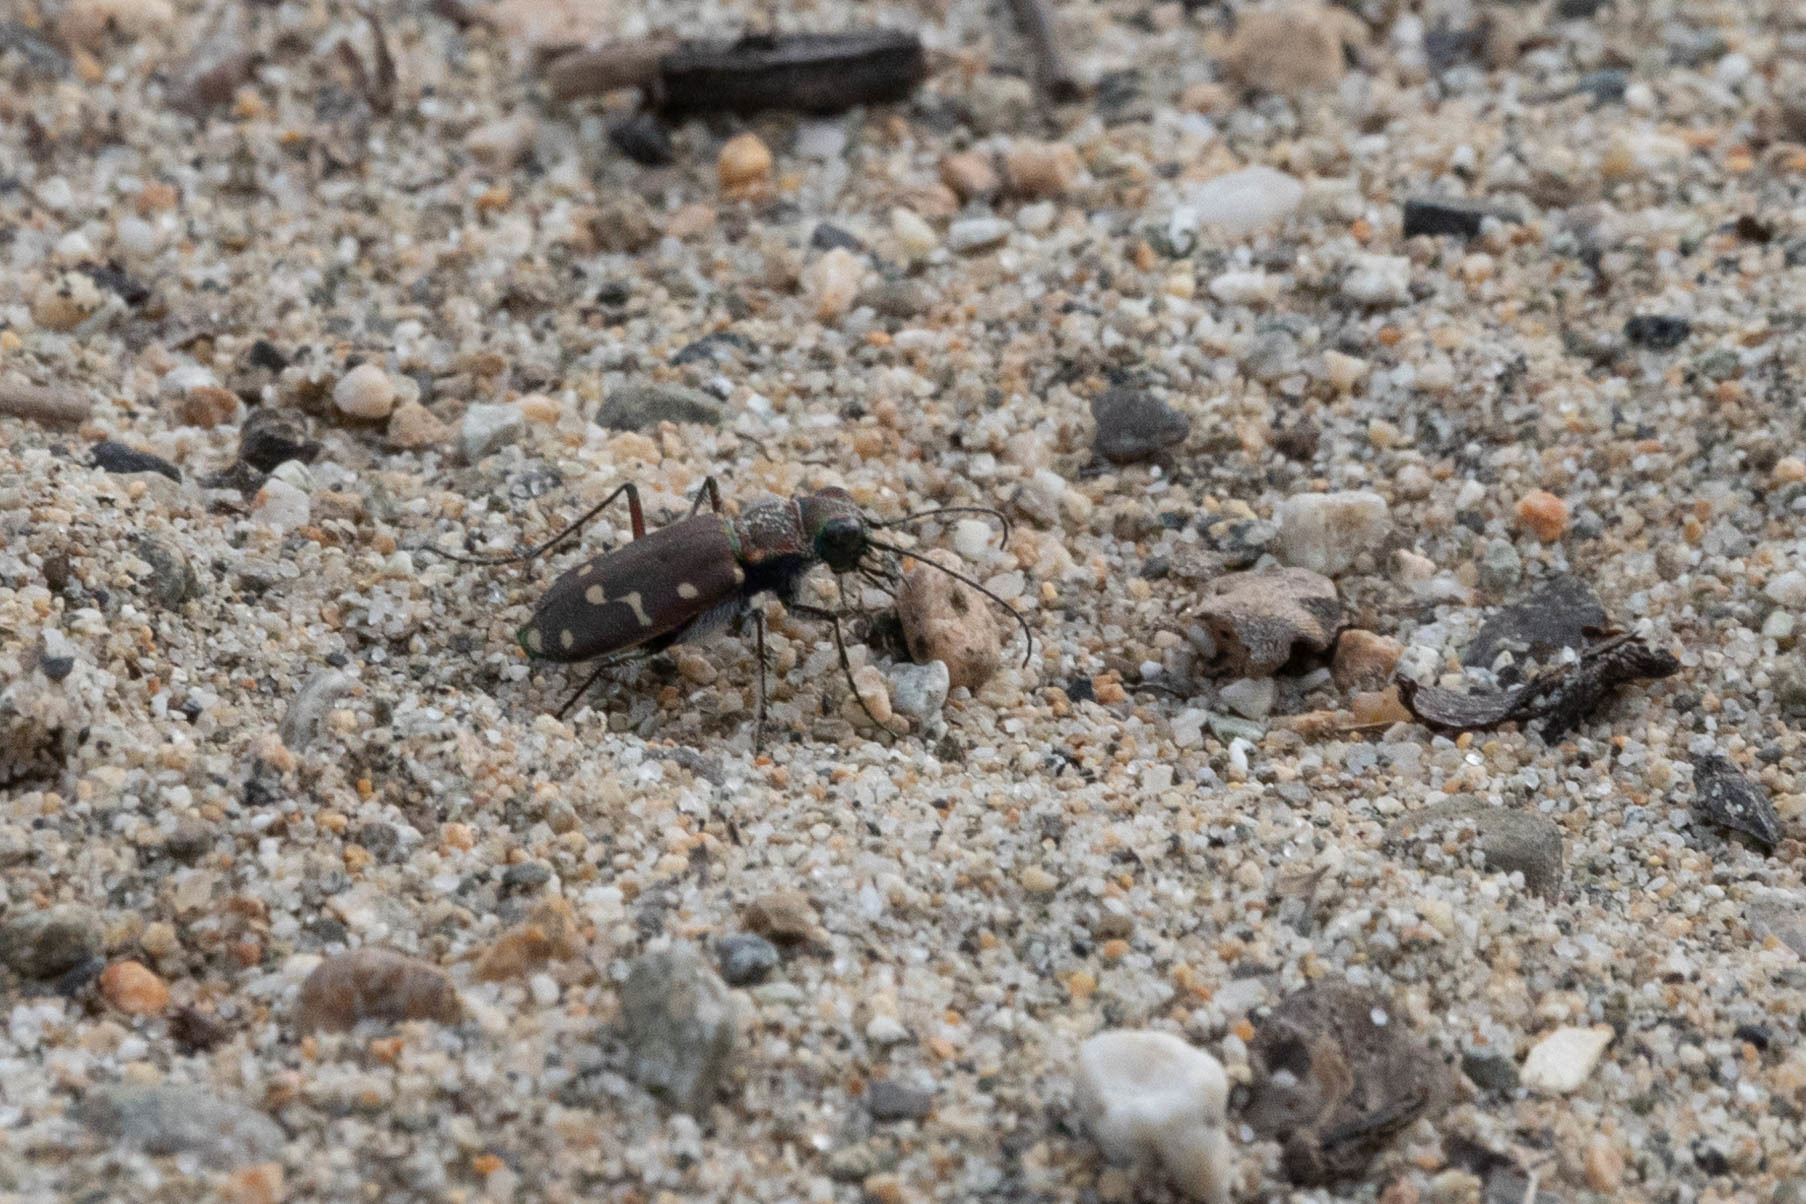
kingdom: Animalia
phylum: Arthropoda
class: Insecta
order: Coleoptera
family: Carabidae
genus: Cicindela
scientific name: Cicindela oregona
